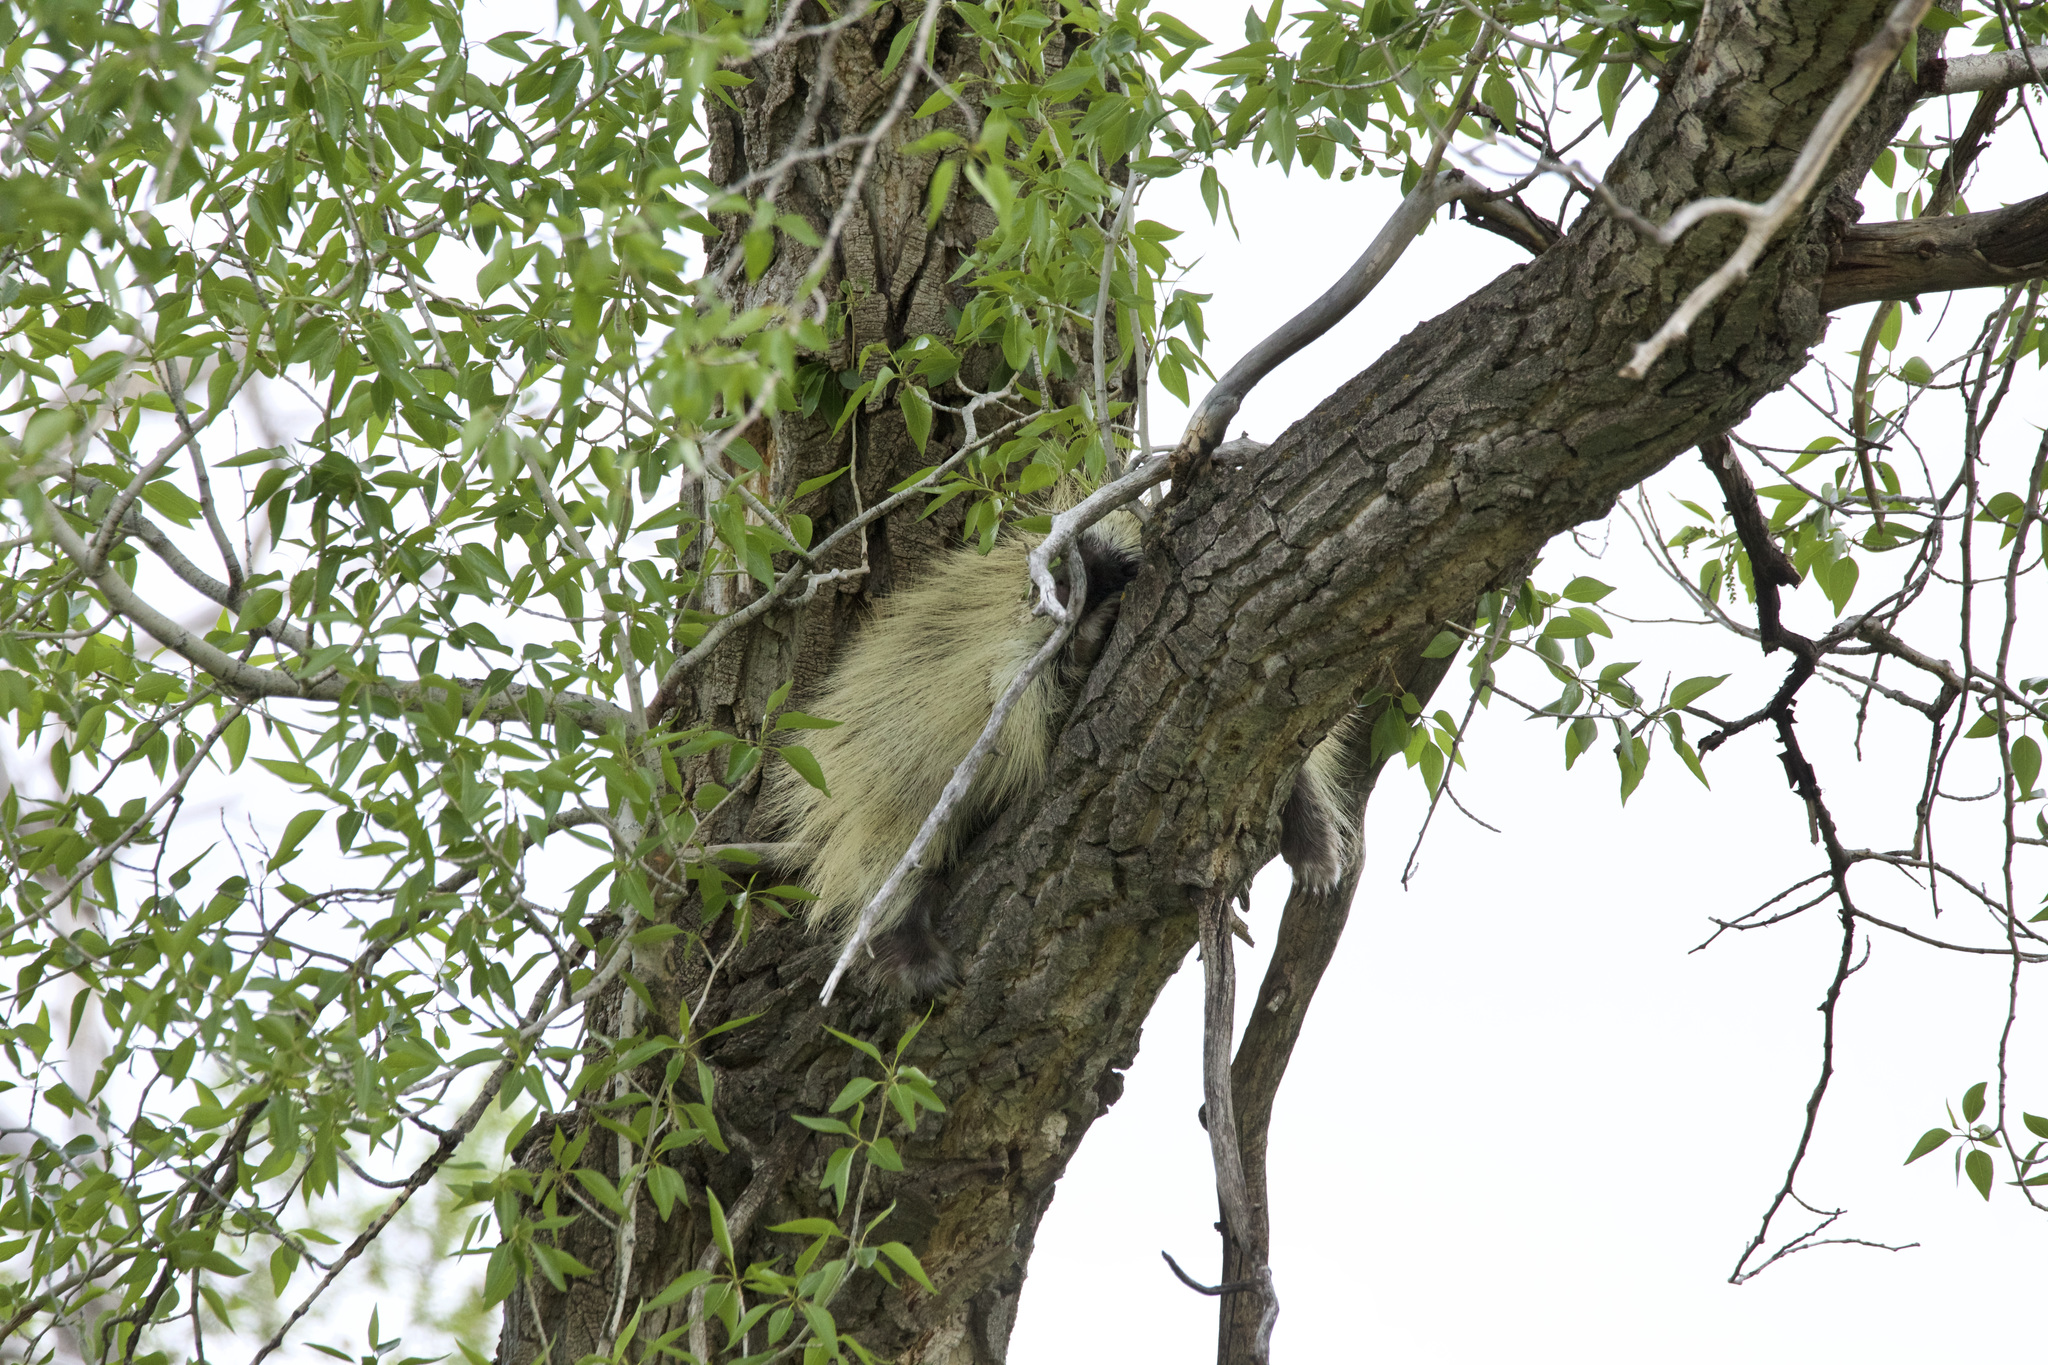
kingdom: Animalia
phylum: Chordata
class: Mammalia
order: Rodentia
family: Erethizontidae
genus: Erethizon
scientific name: Erethizon dorsatus
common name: North american porcupine
